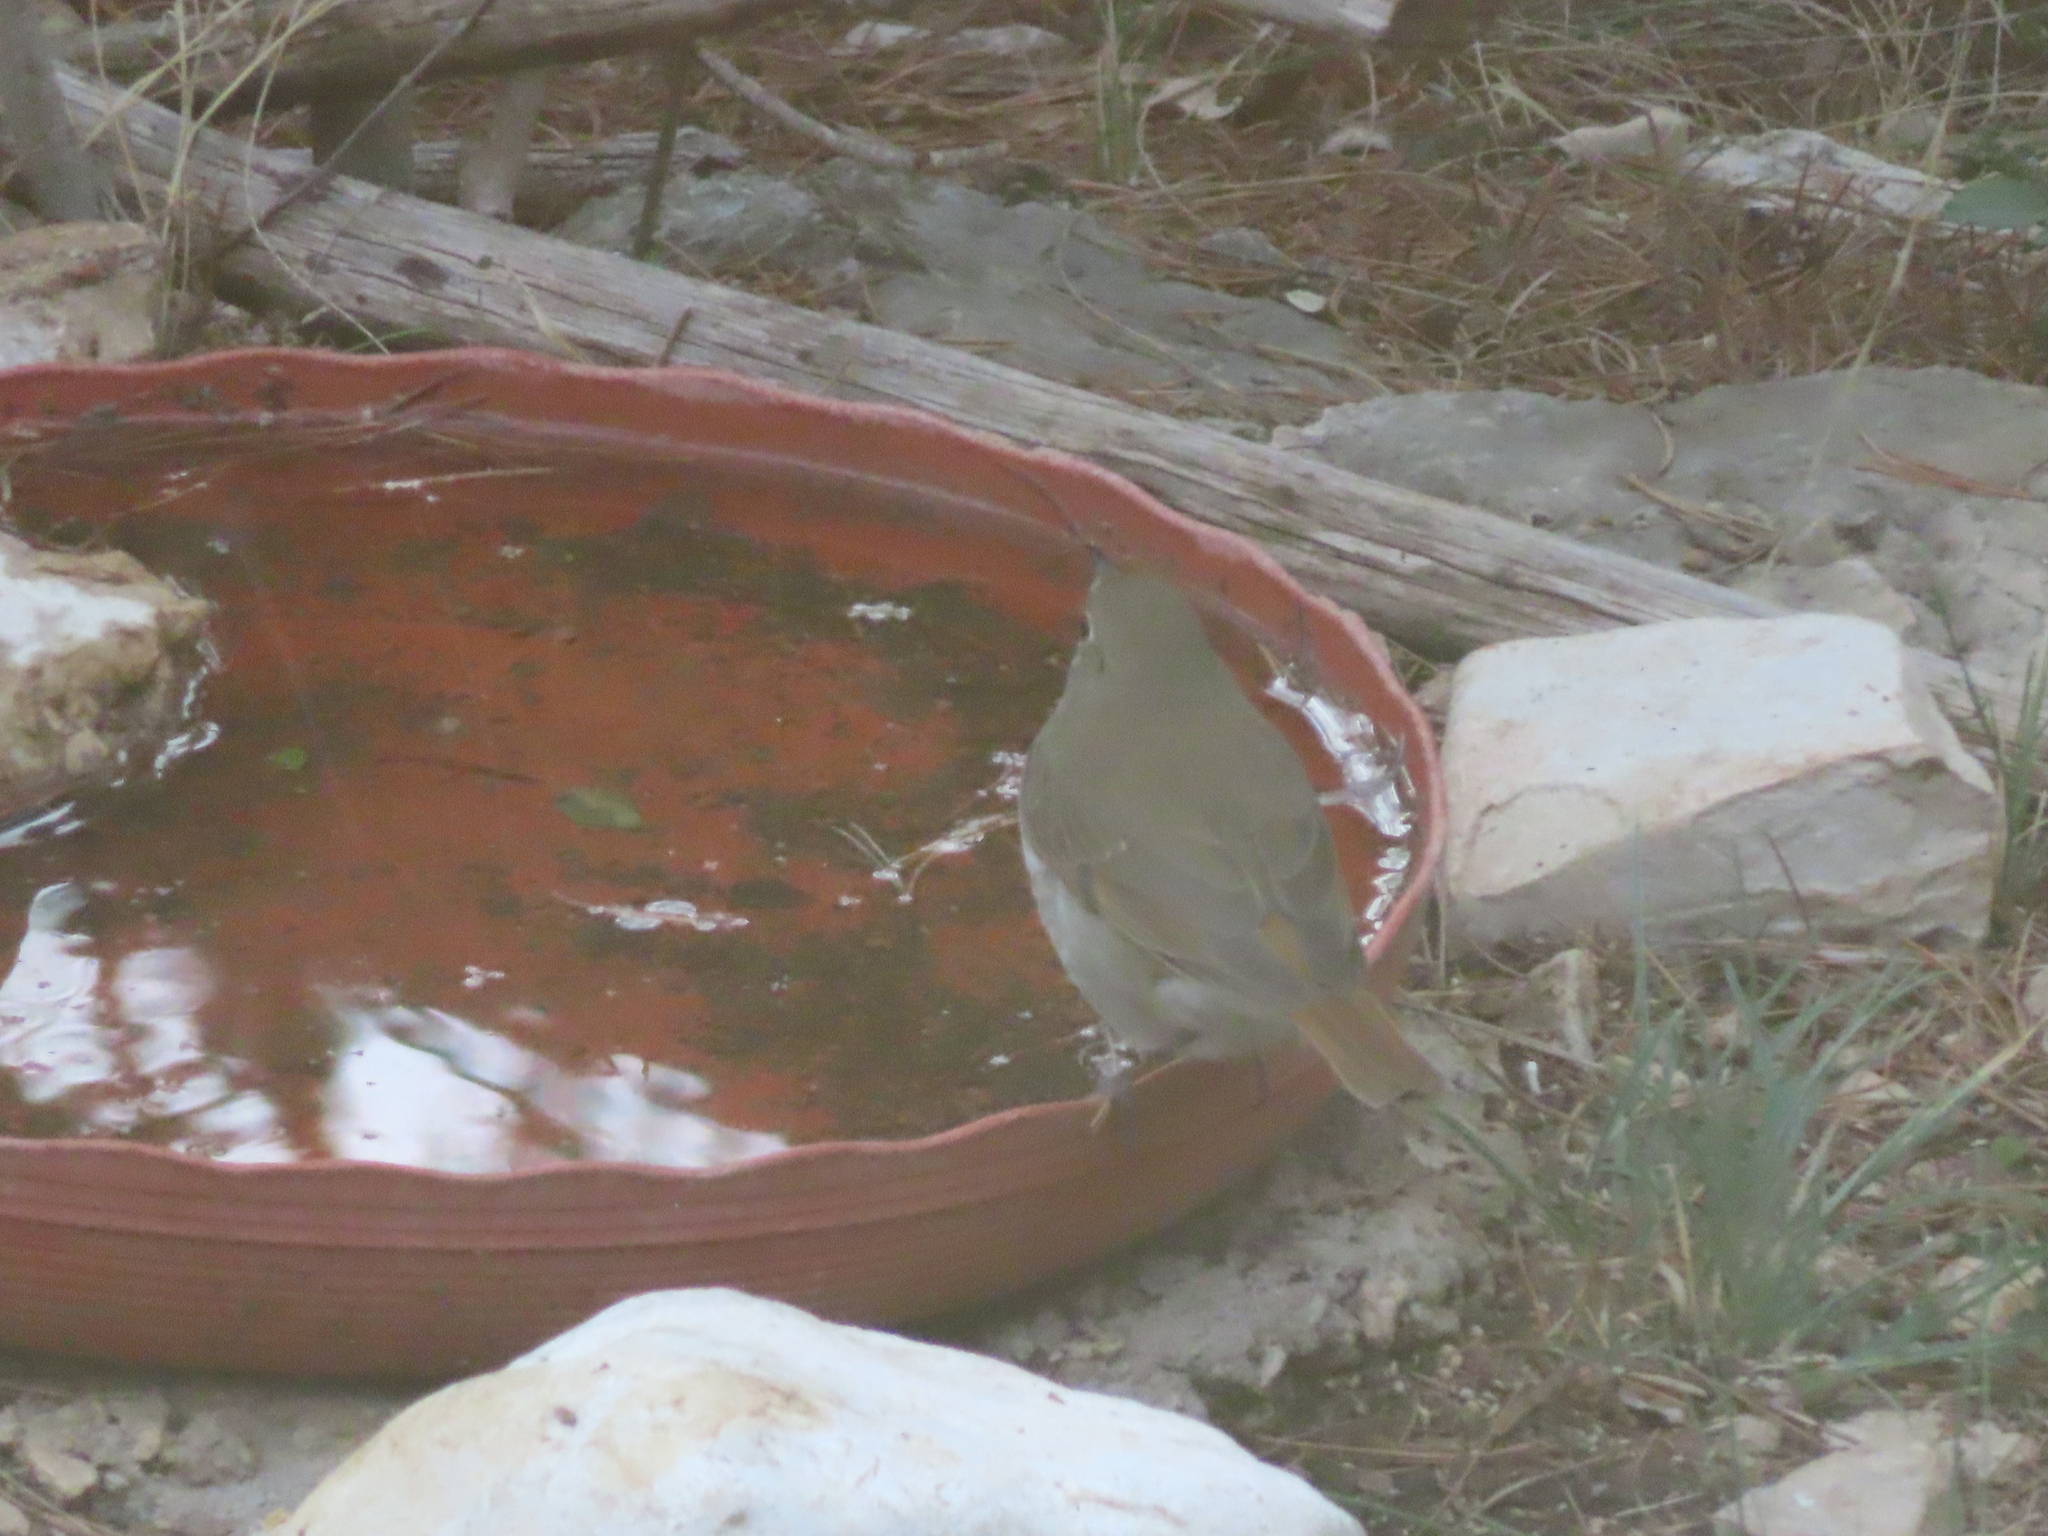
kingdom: Animalia
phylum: Chordata
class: Aves
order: Passeriformes
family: Turdidae
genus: Catharus
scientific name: Catharus guttatus
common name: Hermit thrush
